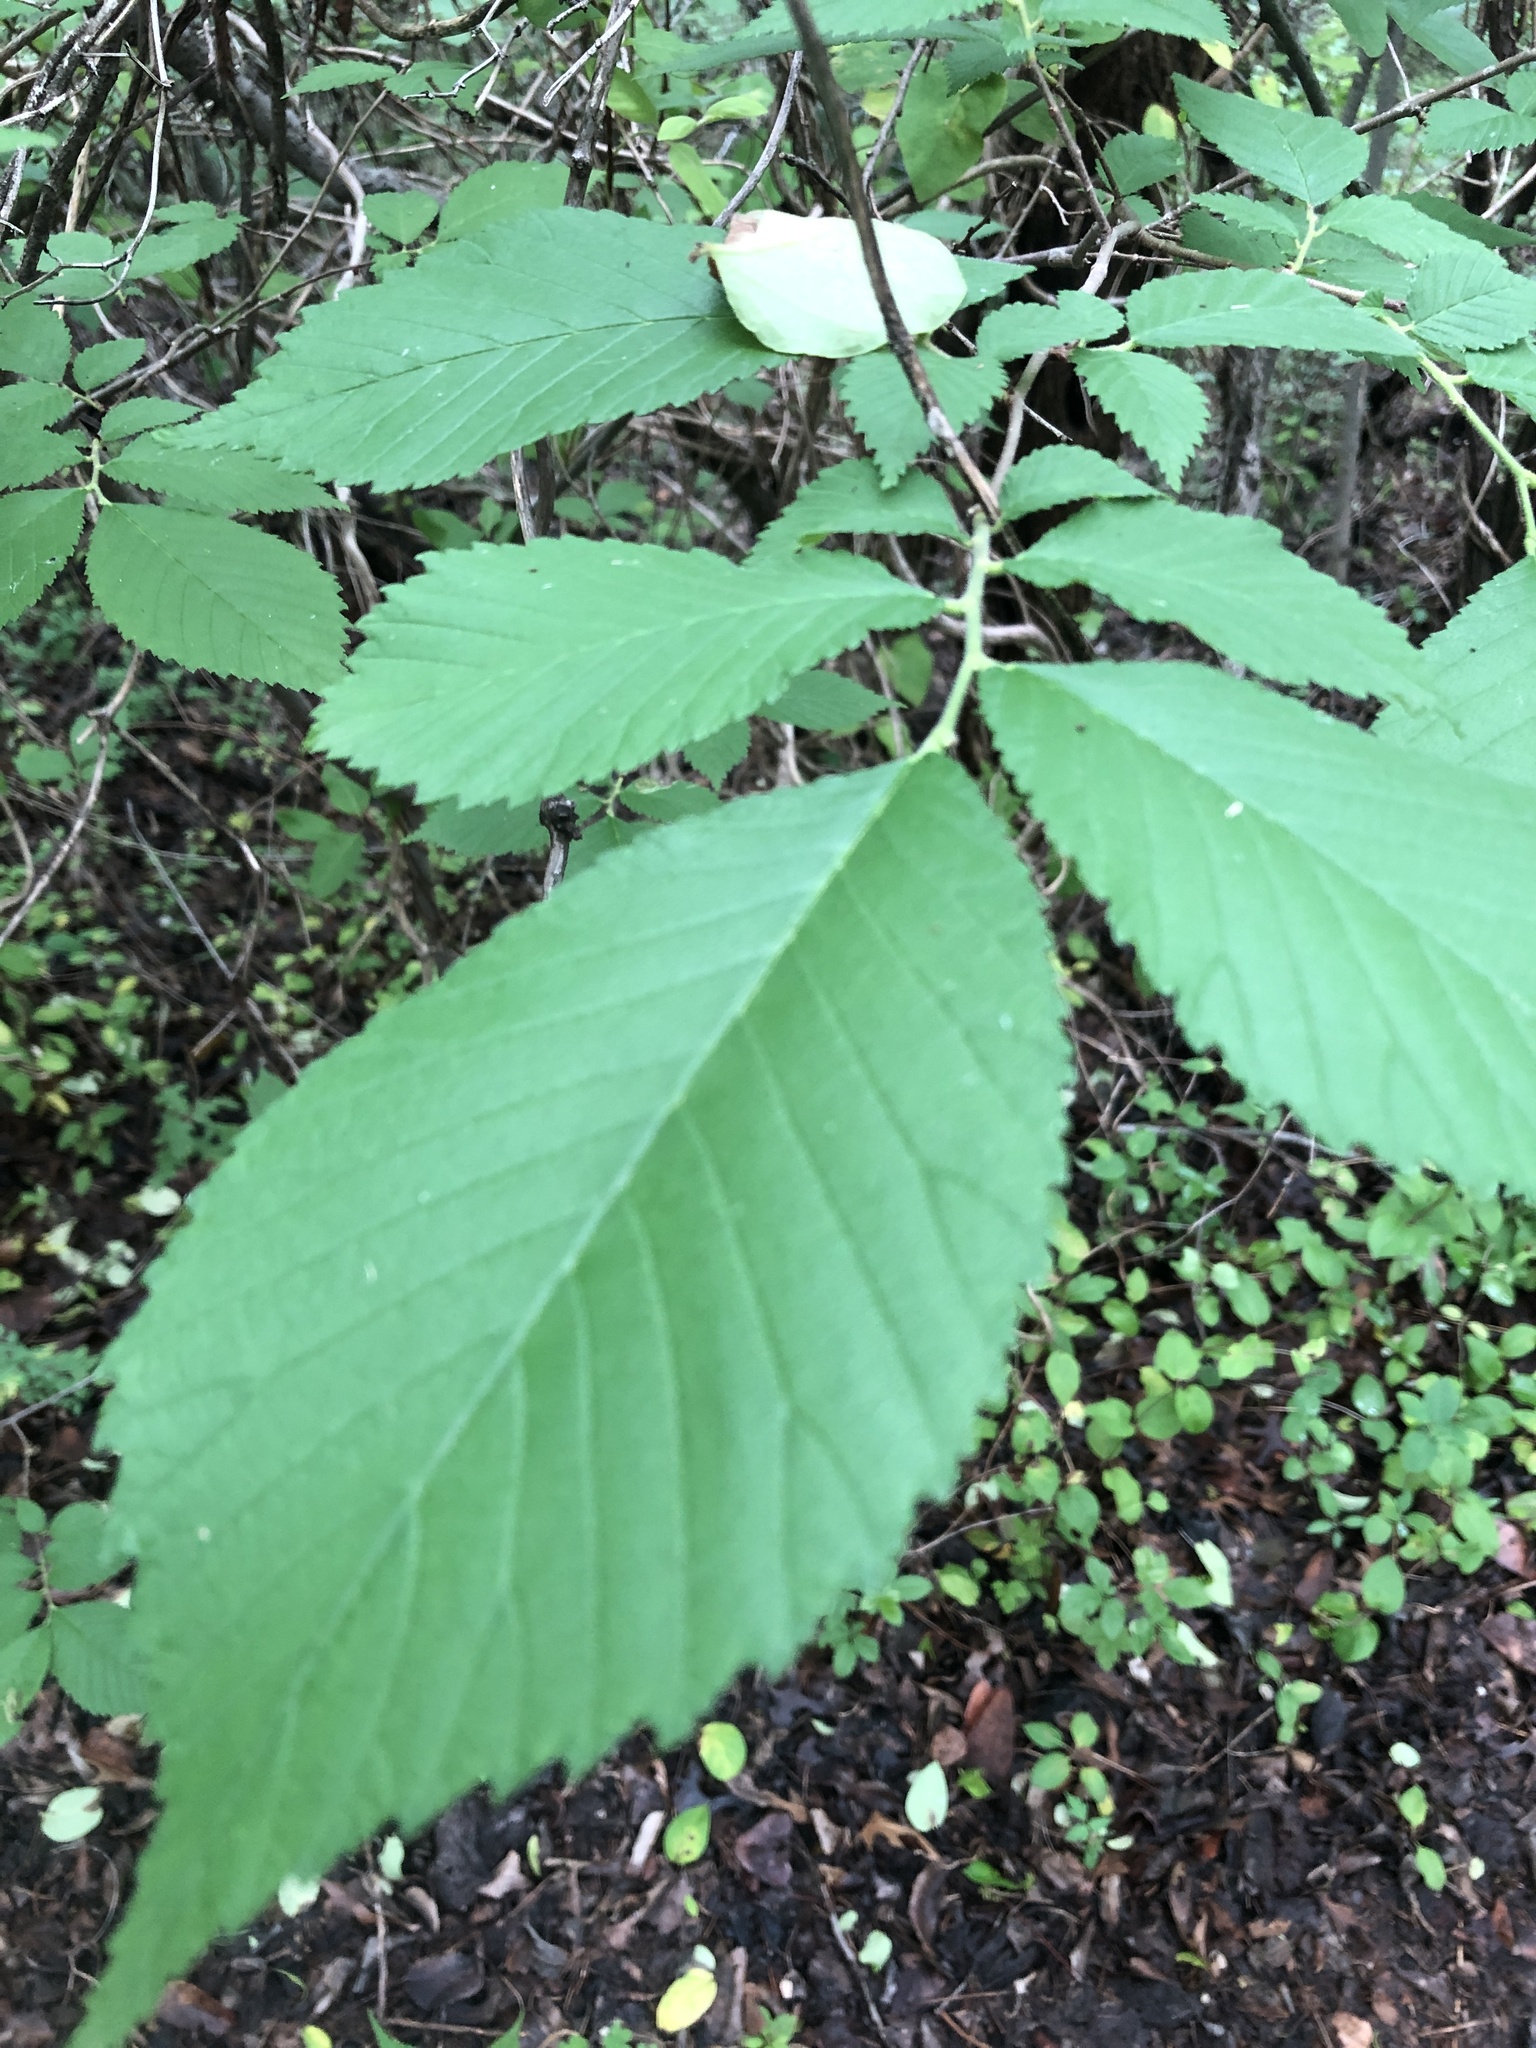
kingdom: Plantae
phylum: Tracheophyta
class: Magnoliopsida
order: Rosales
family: Ulmaceae
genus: Ulmus
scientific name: Ulmus americana
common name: American elm
